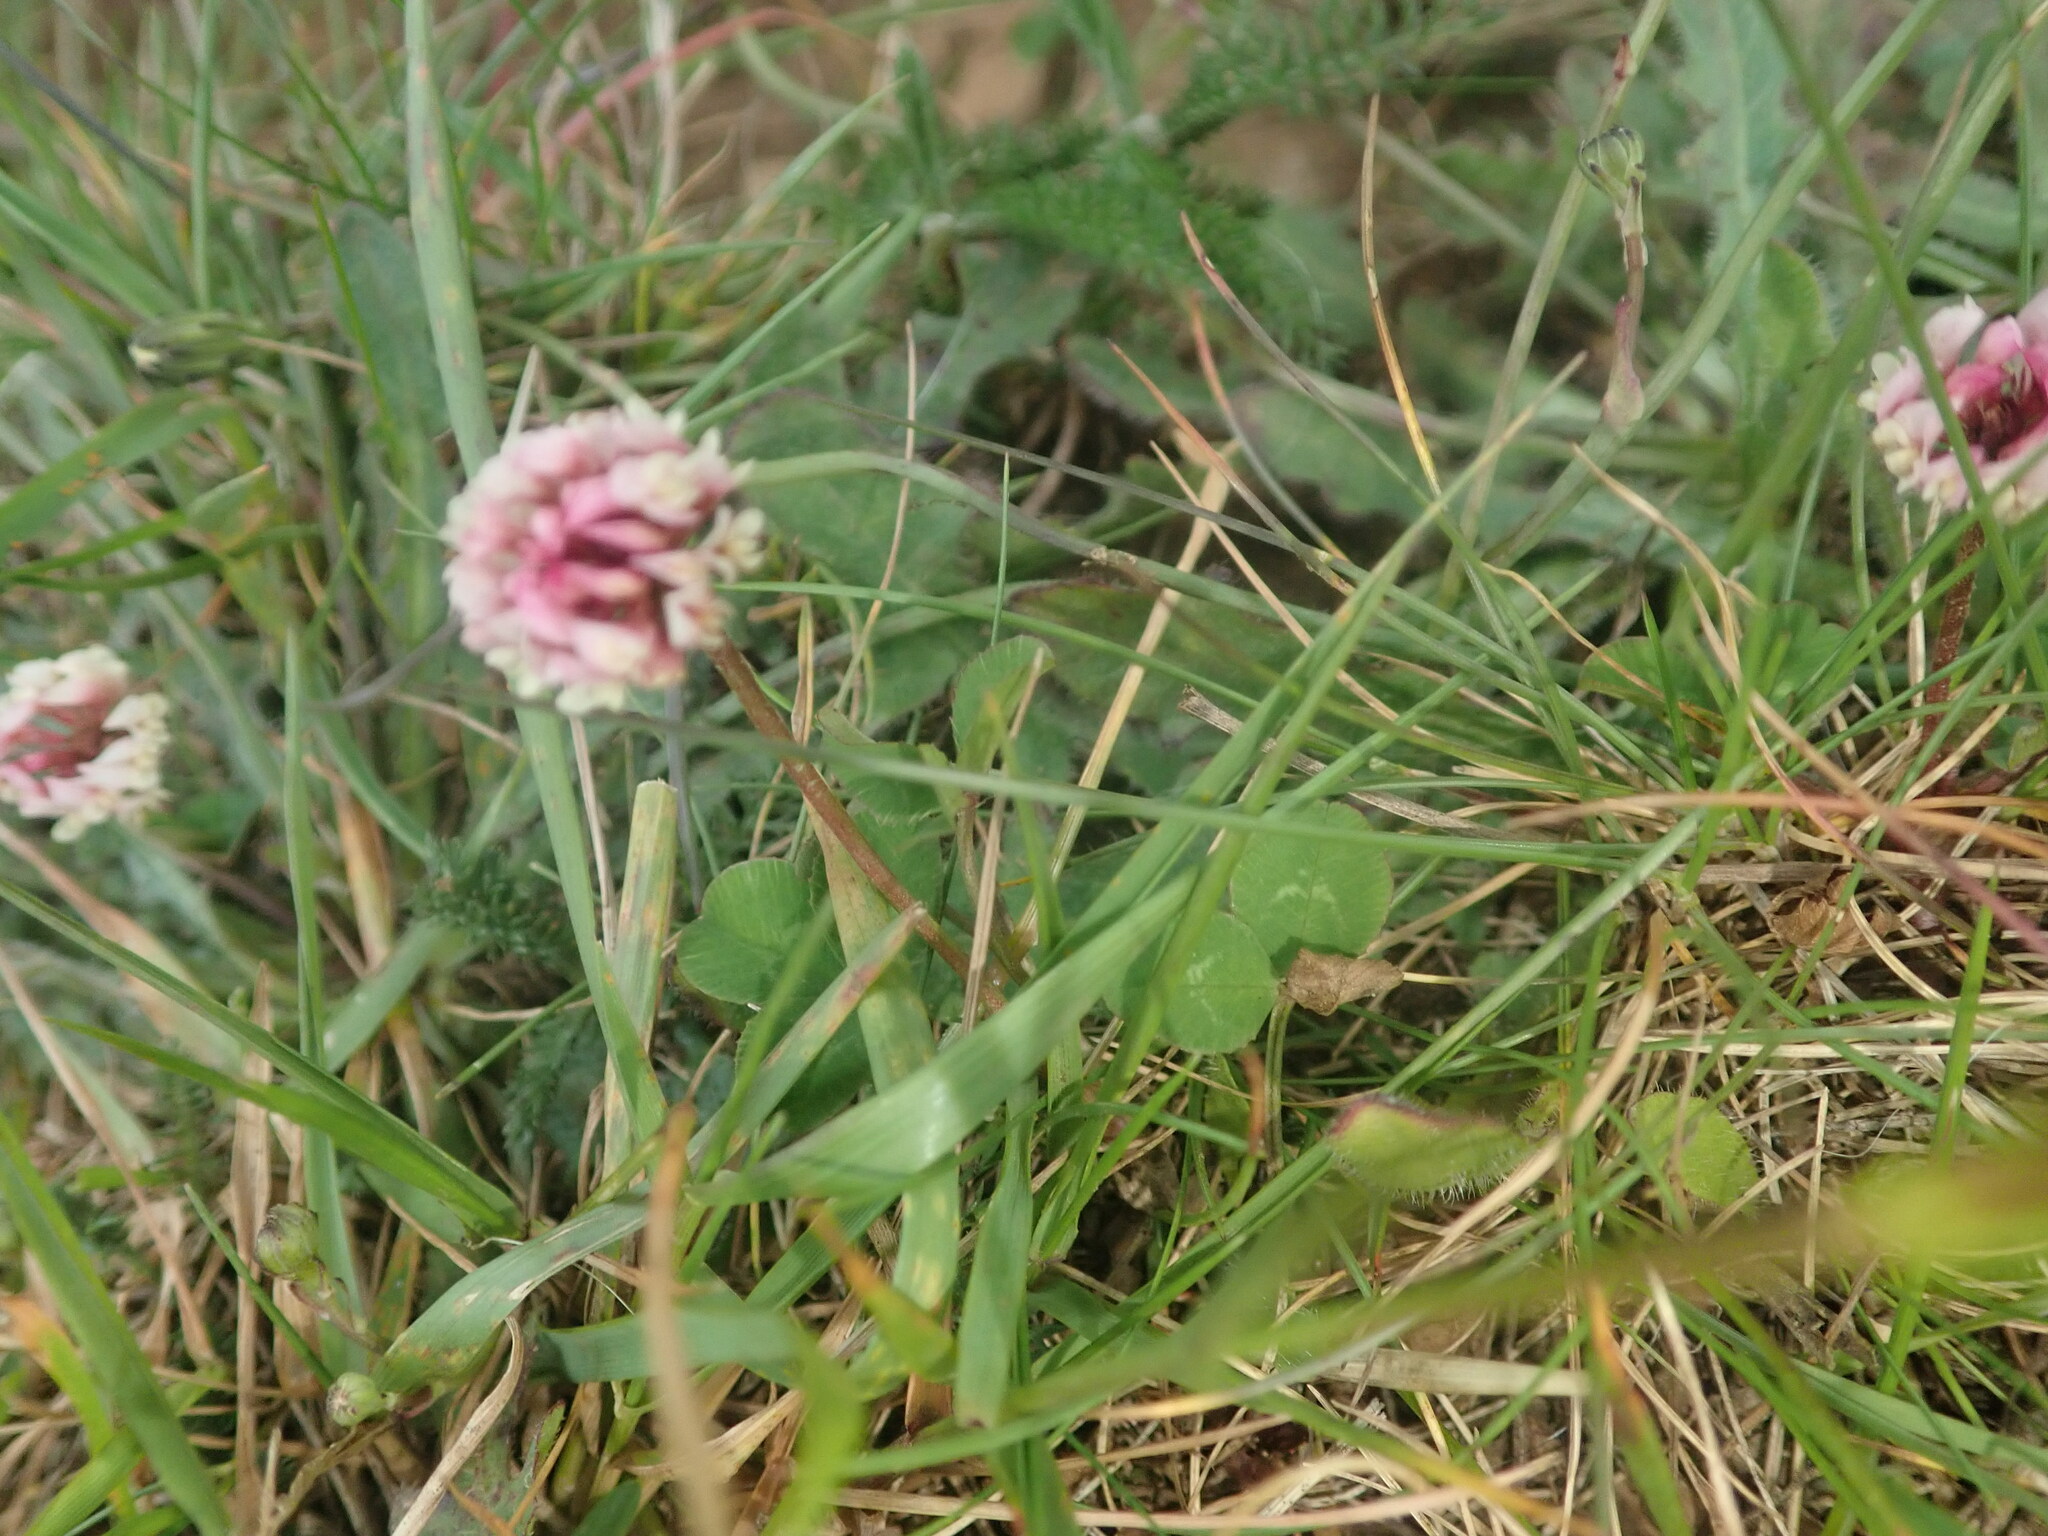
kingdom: Plantae
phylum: Tracheophyta
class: Magnoliopsida
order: Fabales
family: Fabaceae
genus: Trifolium
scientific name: Trifolium repens
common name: White clover
